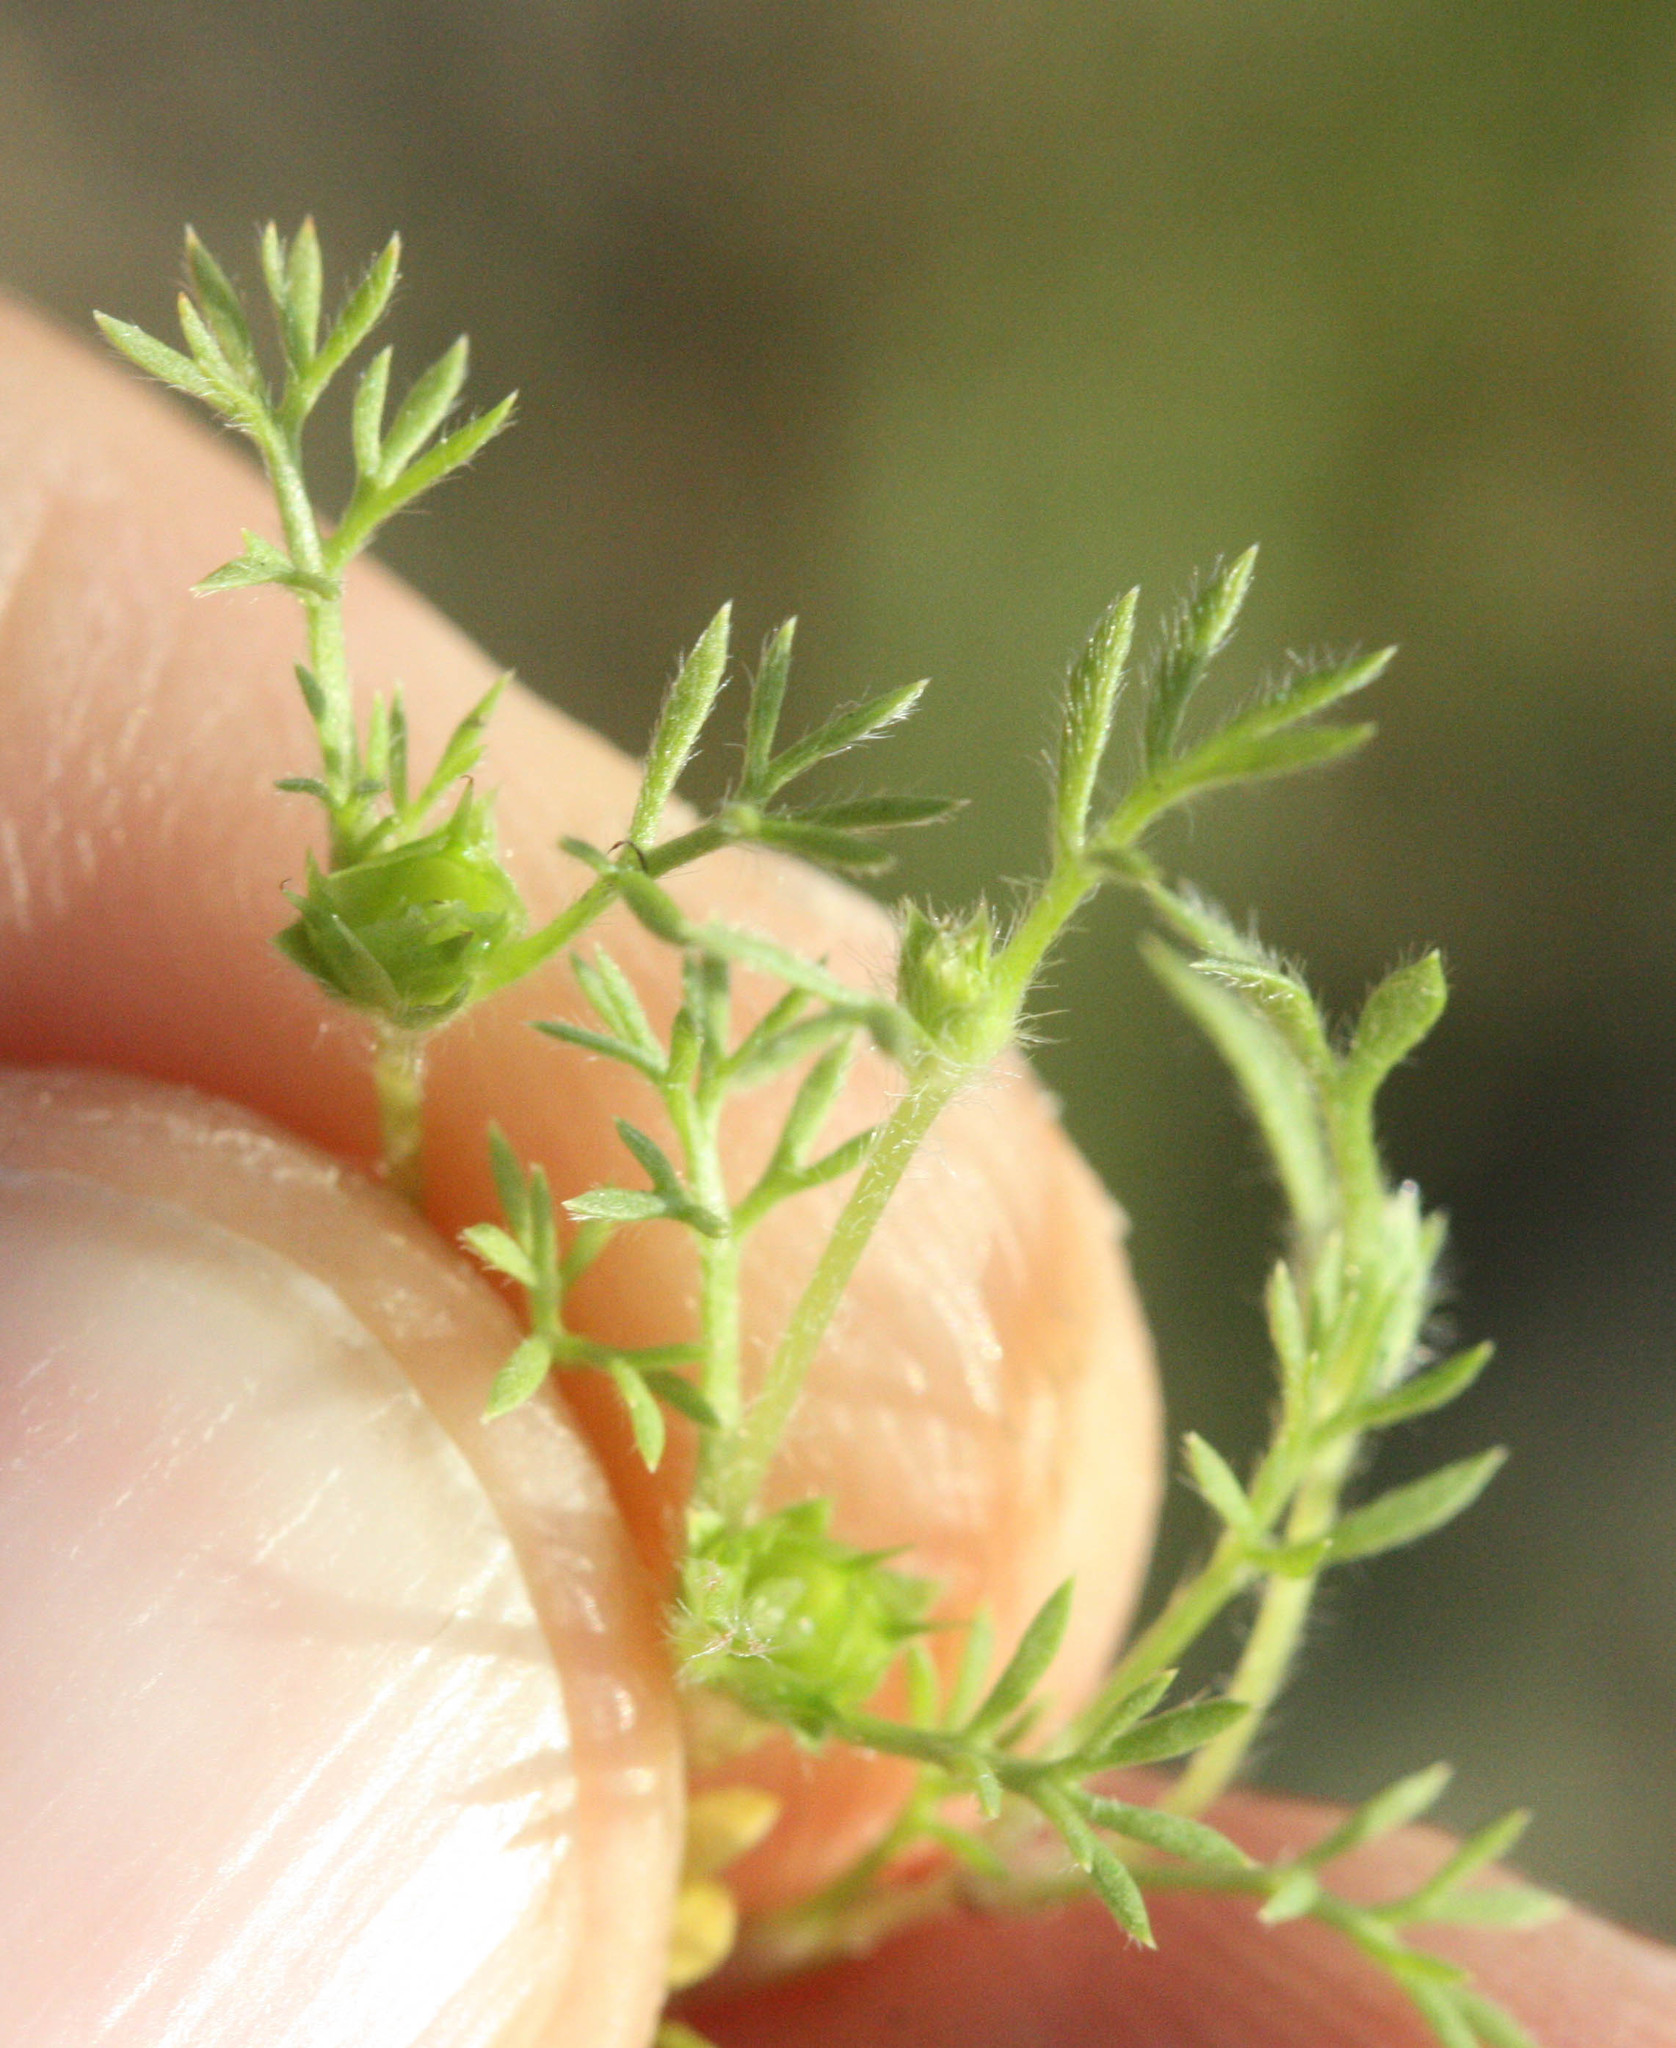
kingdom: Plantae
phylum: Tracheophyta
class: Magnoliopsida
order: Asterales
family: Asteraceae
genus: Soliva
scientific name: Soliva sessilis
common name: Field burrweed
